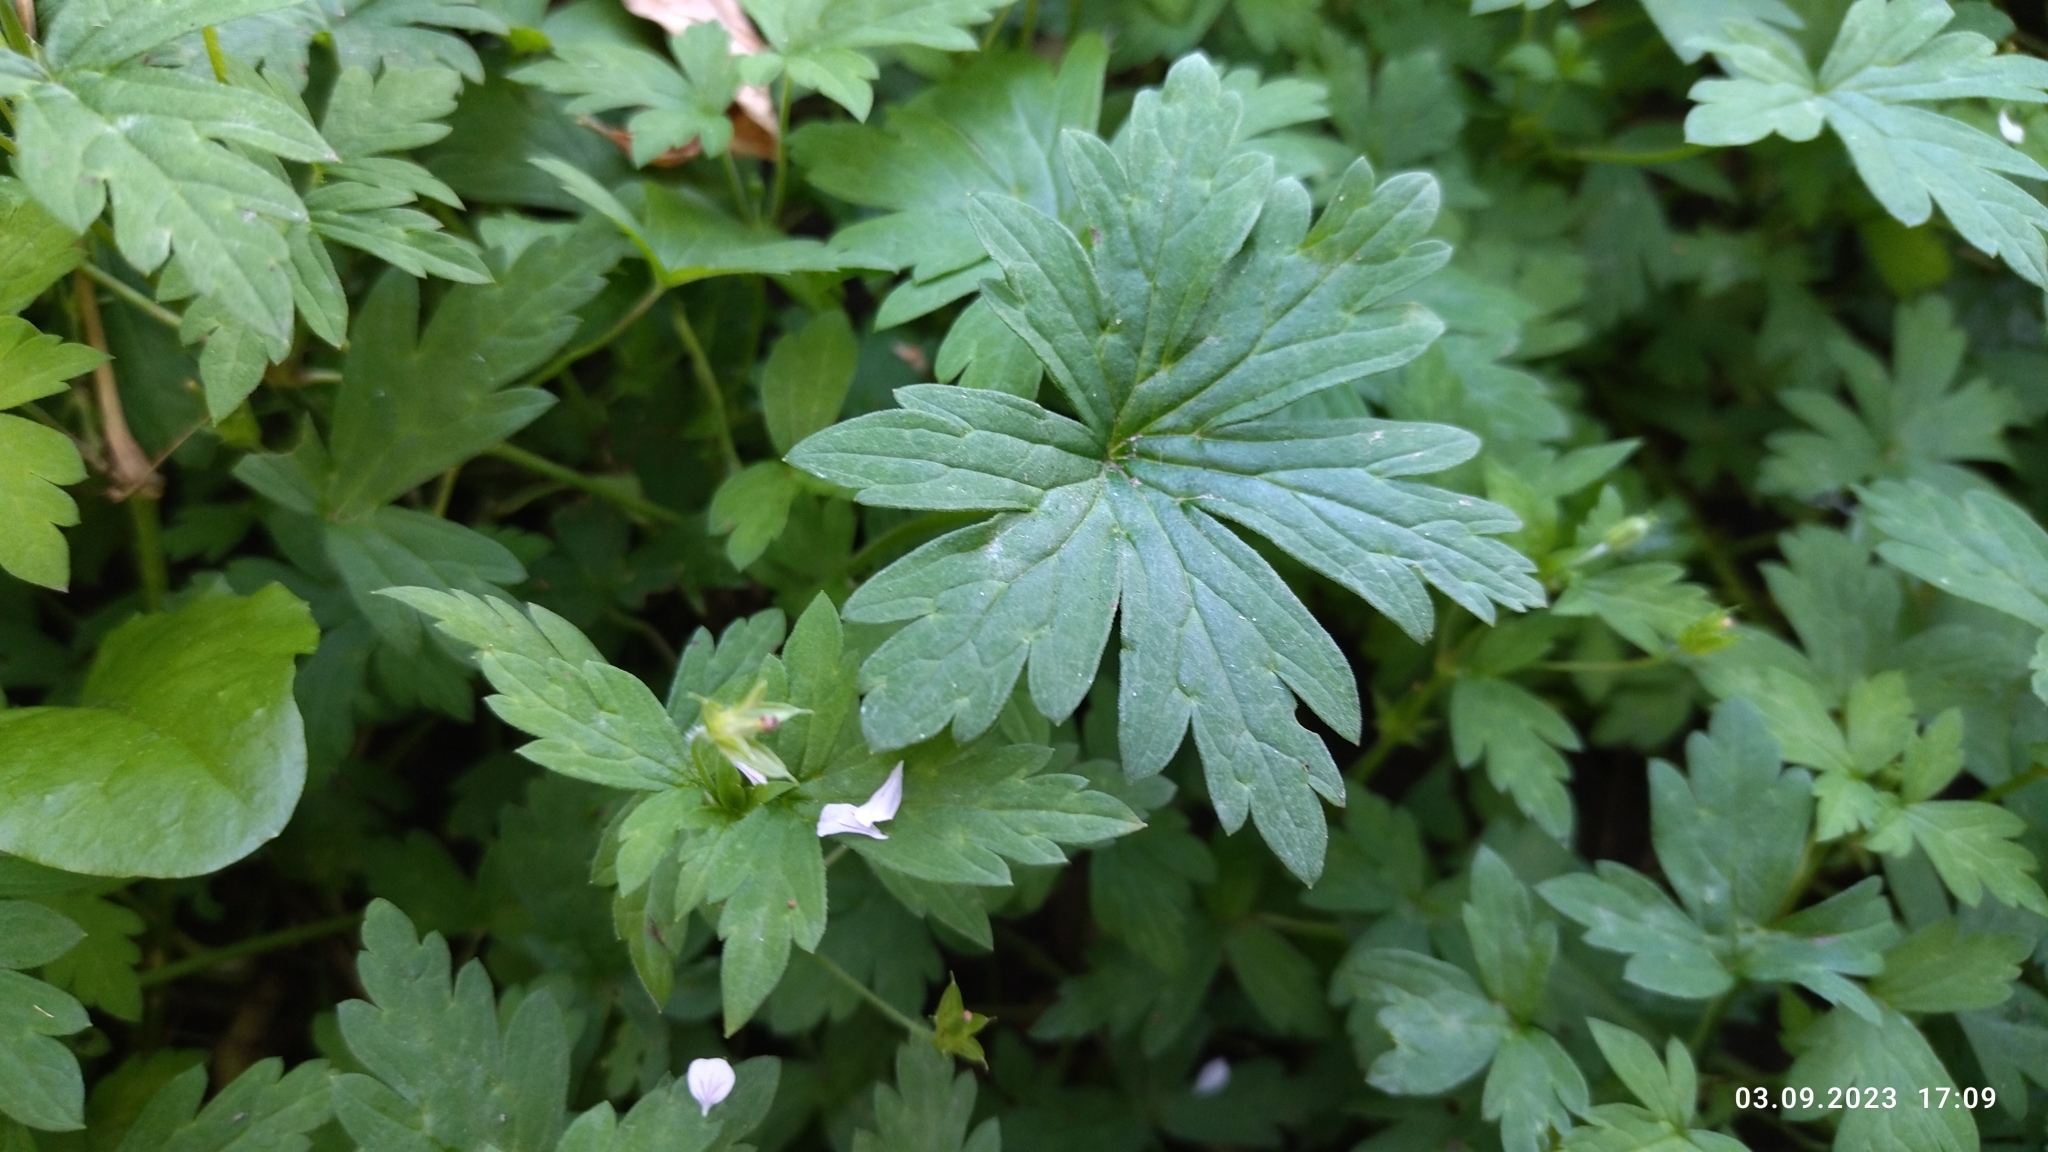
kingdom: Plantae
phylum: Tracheophyta
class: Magnoliopsida
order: Geraniales
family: Geraniaceae
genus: Geranium
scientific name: Geranium sibiricum
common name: Siberian crane's-bill
